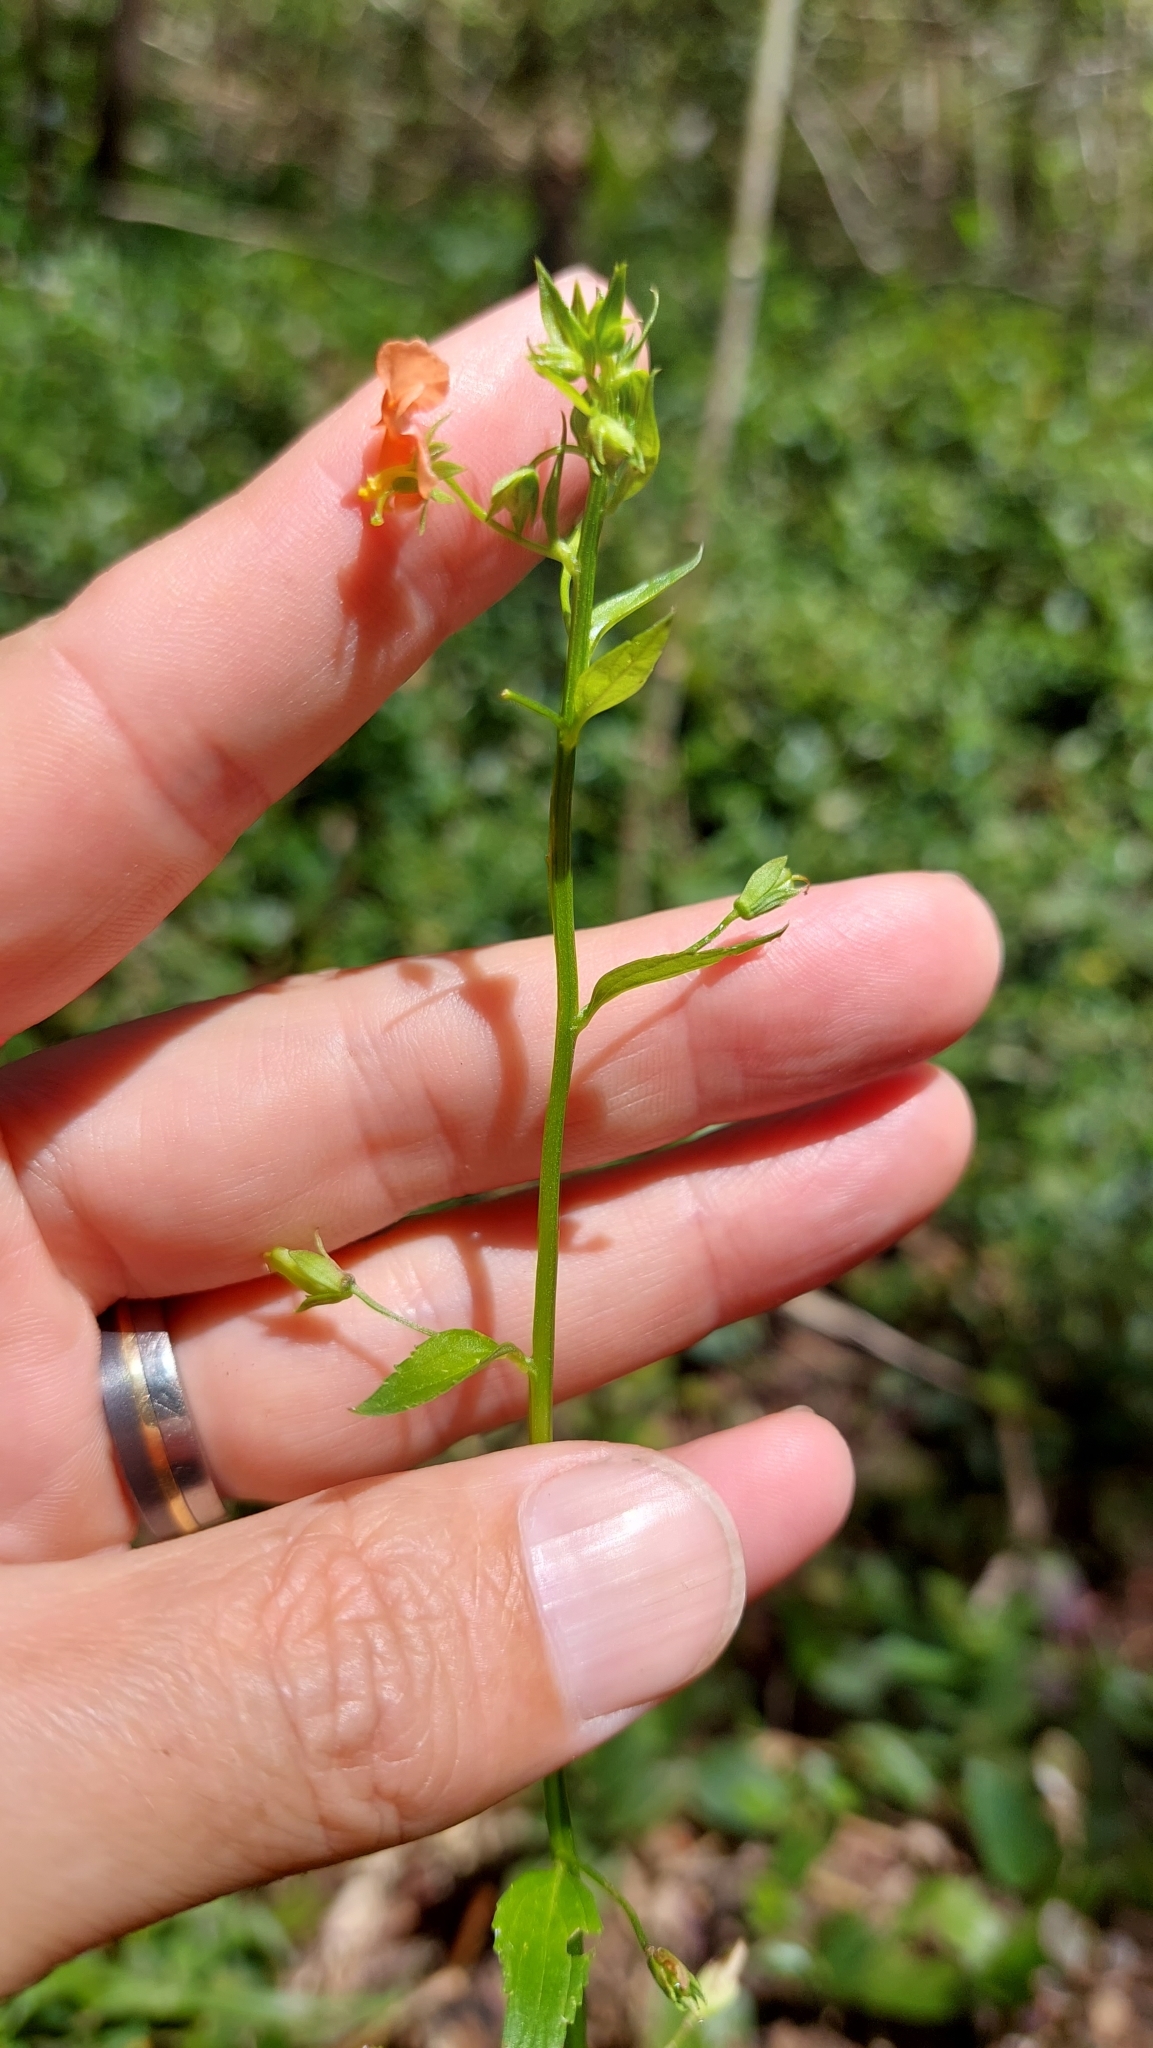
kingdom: Plantae
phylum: Tracheophyta
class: Magnoliopsida
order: Lamiales
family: Scrophulariaceae
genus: Alonsoa
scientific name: Alonsoa meridionalis
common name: Maskflower
